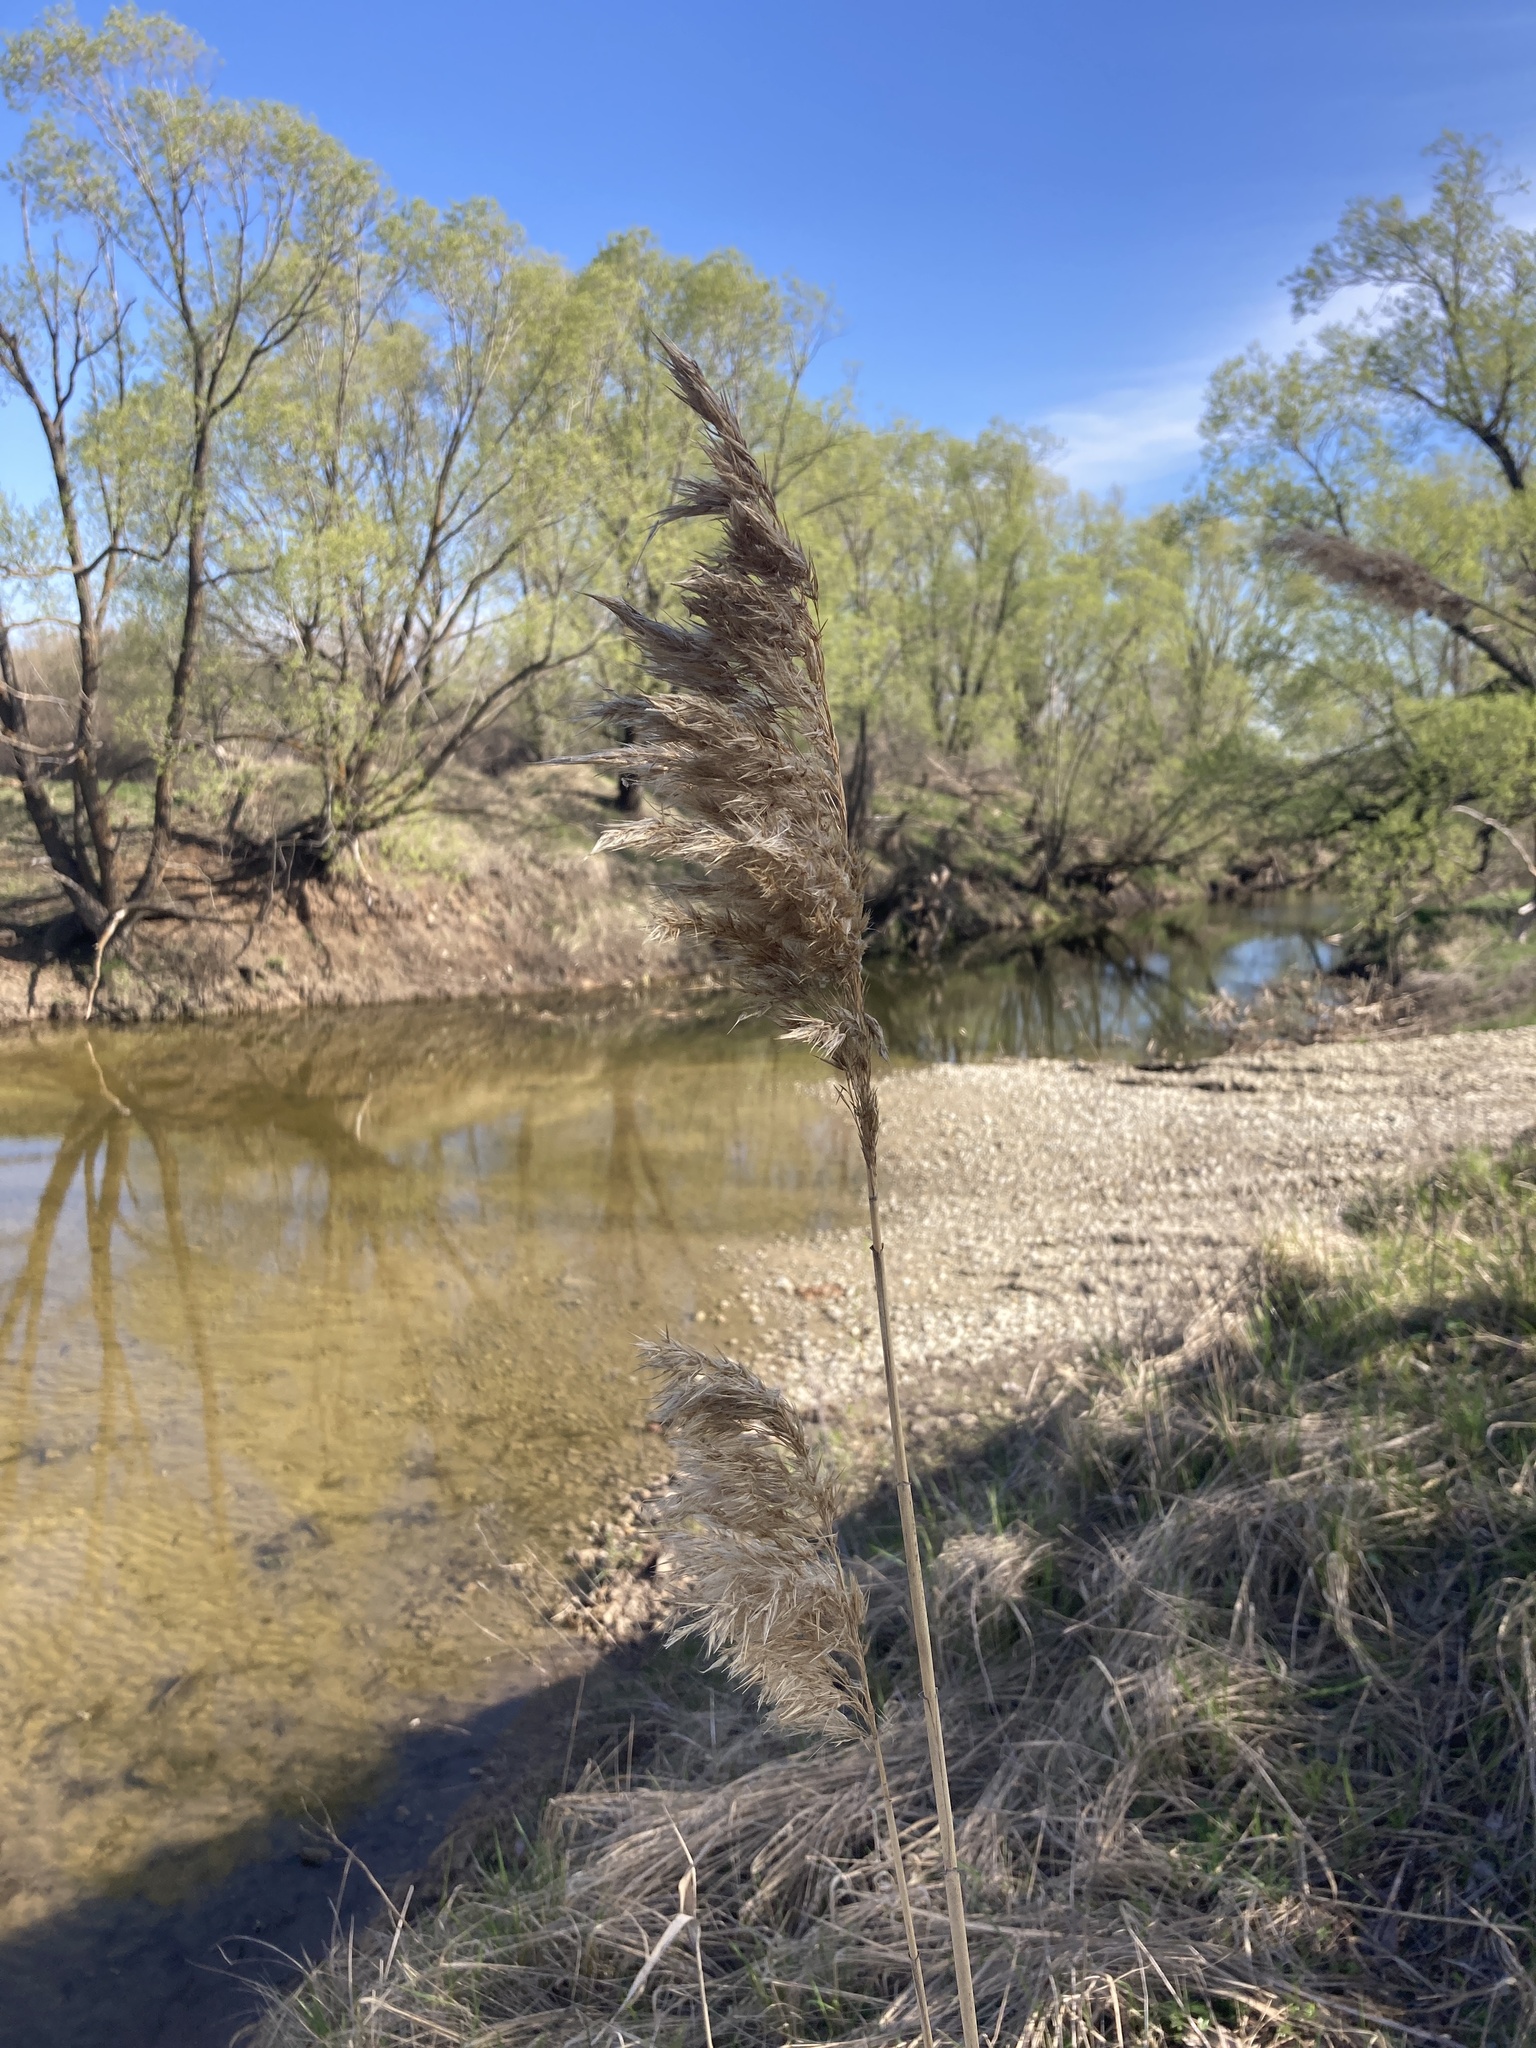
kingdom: Plantae
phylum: Tracheophyta
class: Liliopsida
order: Poales
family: Poaceae
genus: Phragmites
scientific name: Phragmites australis
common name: Common reed
